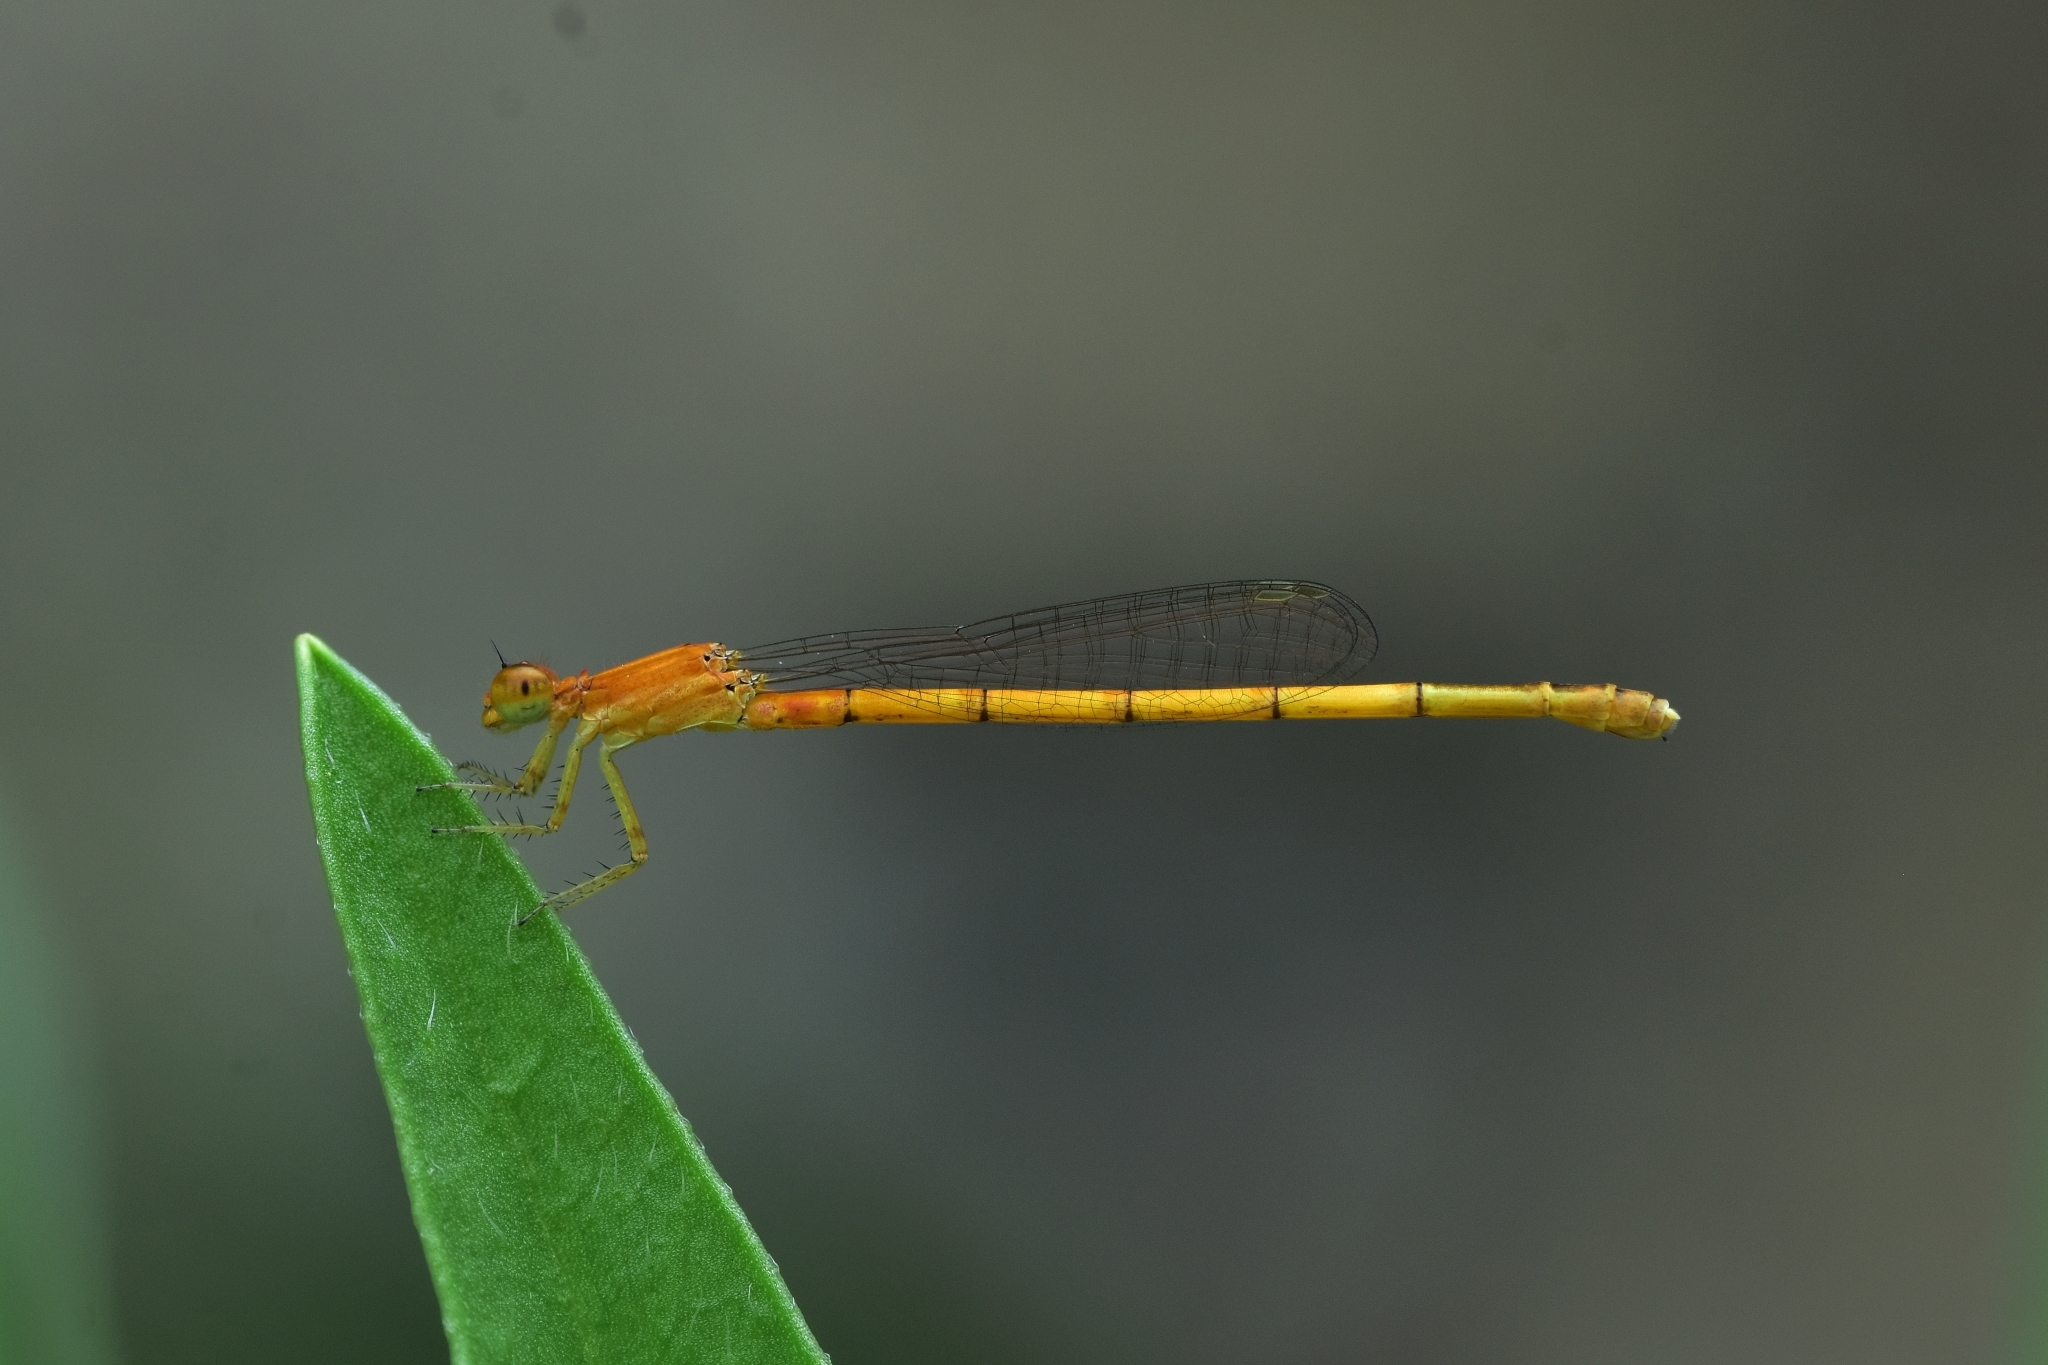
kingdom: Animalia
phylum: Arthropoda
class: Insecta
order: Odonata
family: Coenagrionidae
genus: Agriocnemis
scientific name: Agriocnemis pieris
